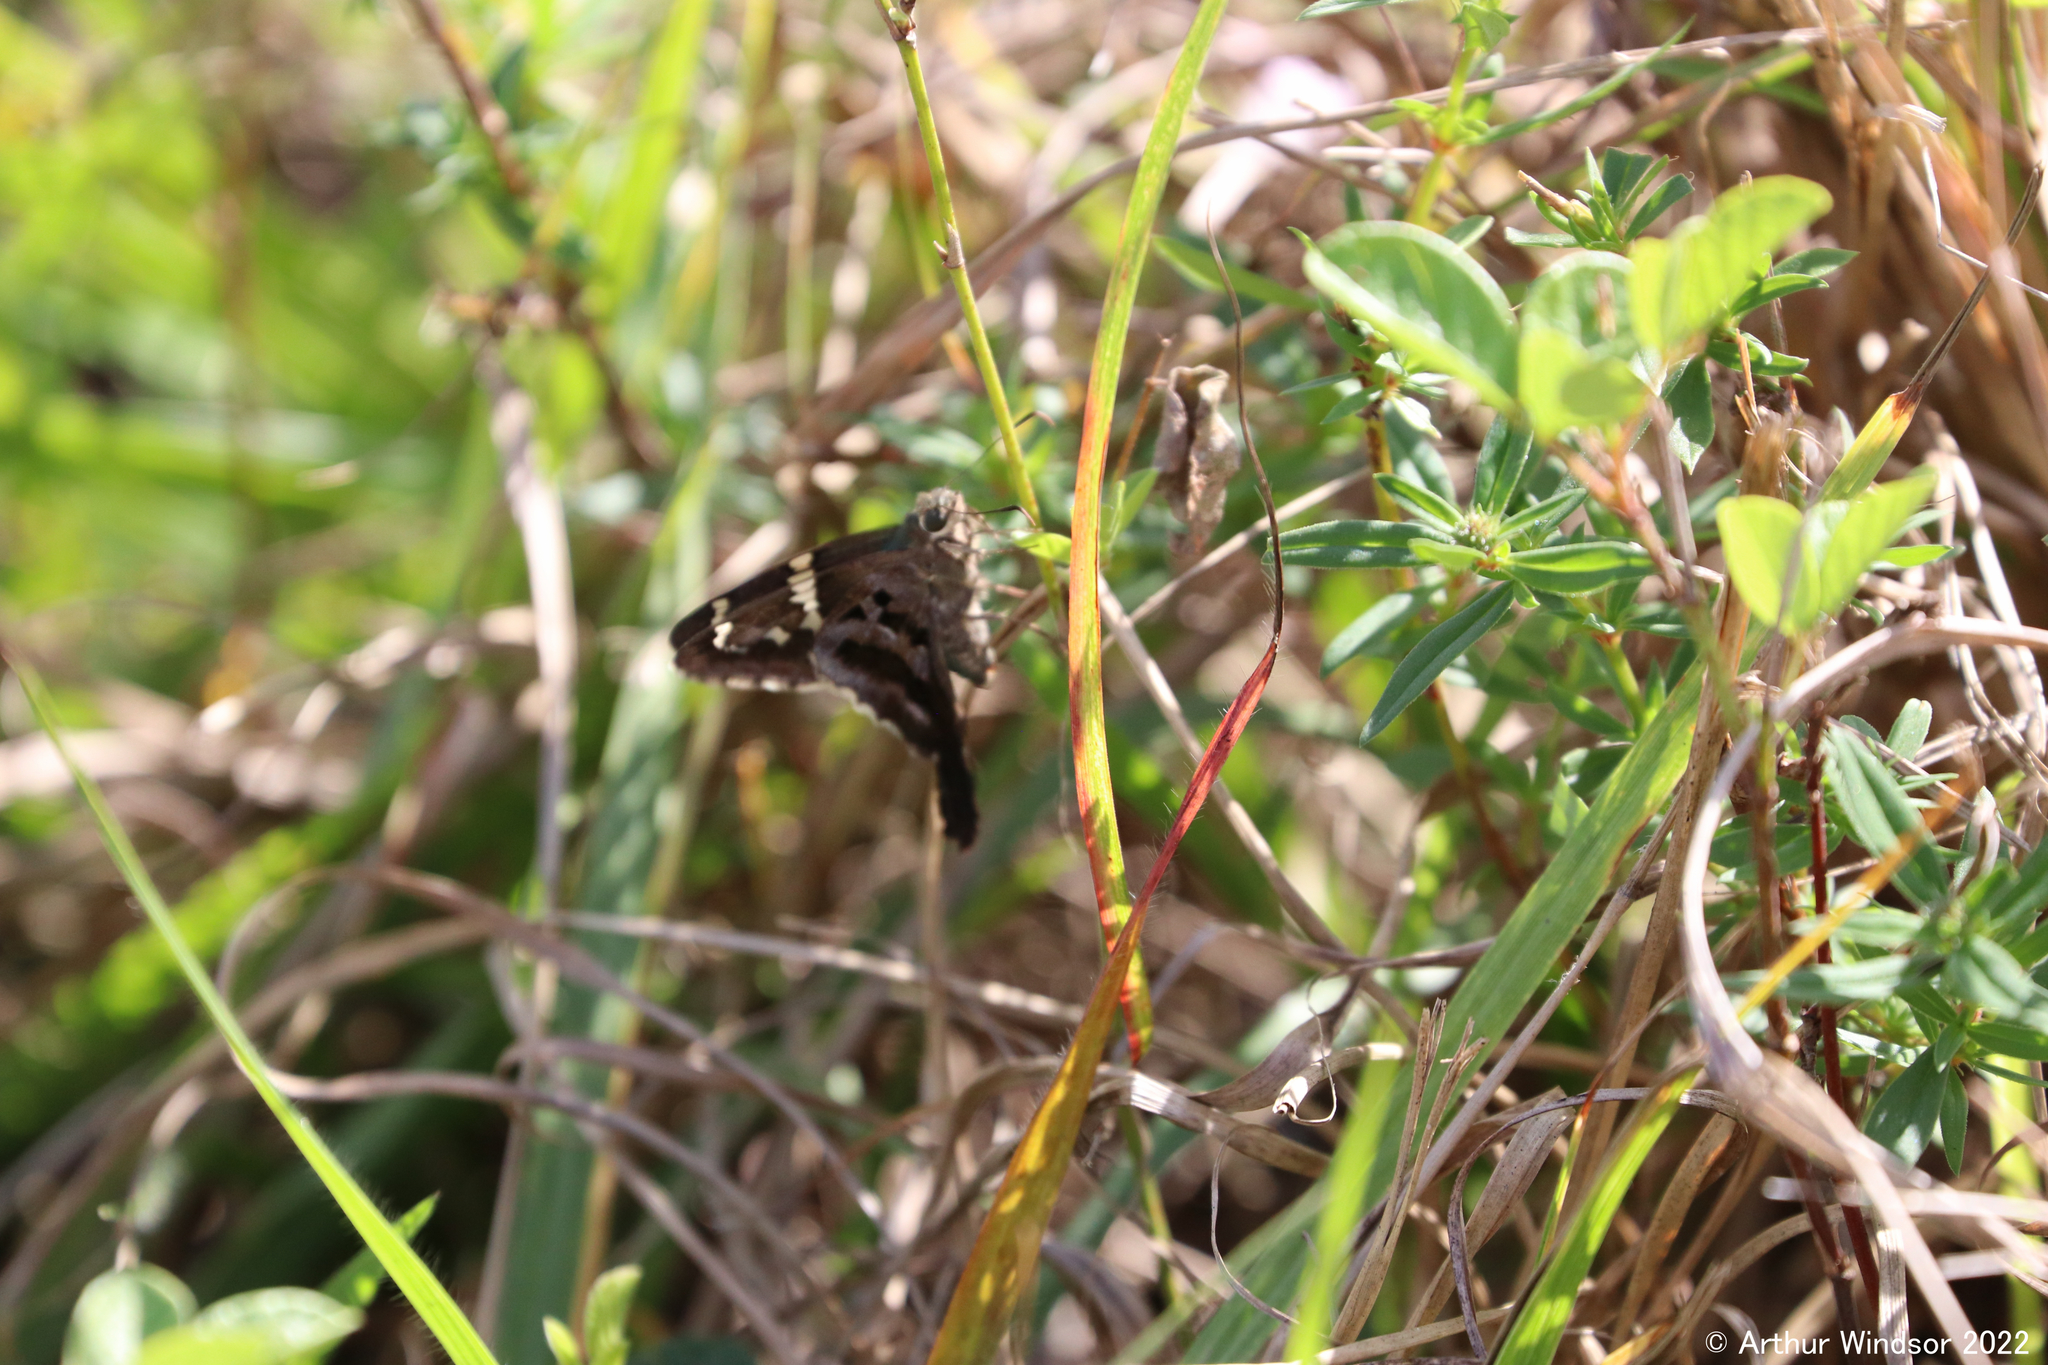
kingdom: Animalia
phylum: Arthropoda
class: Insecta
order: Lepidoptera
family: Hesperiidae
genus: Urbanus
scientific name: Urbanus proteus
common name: Long-tailed skipper
